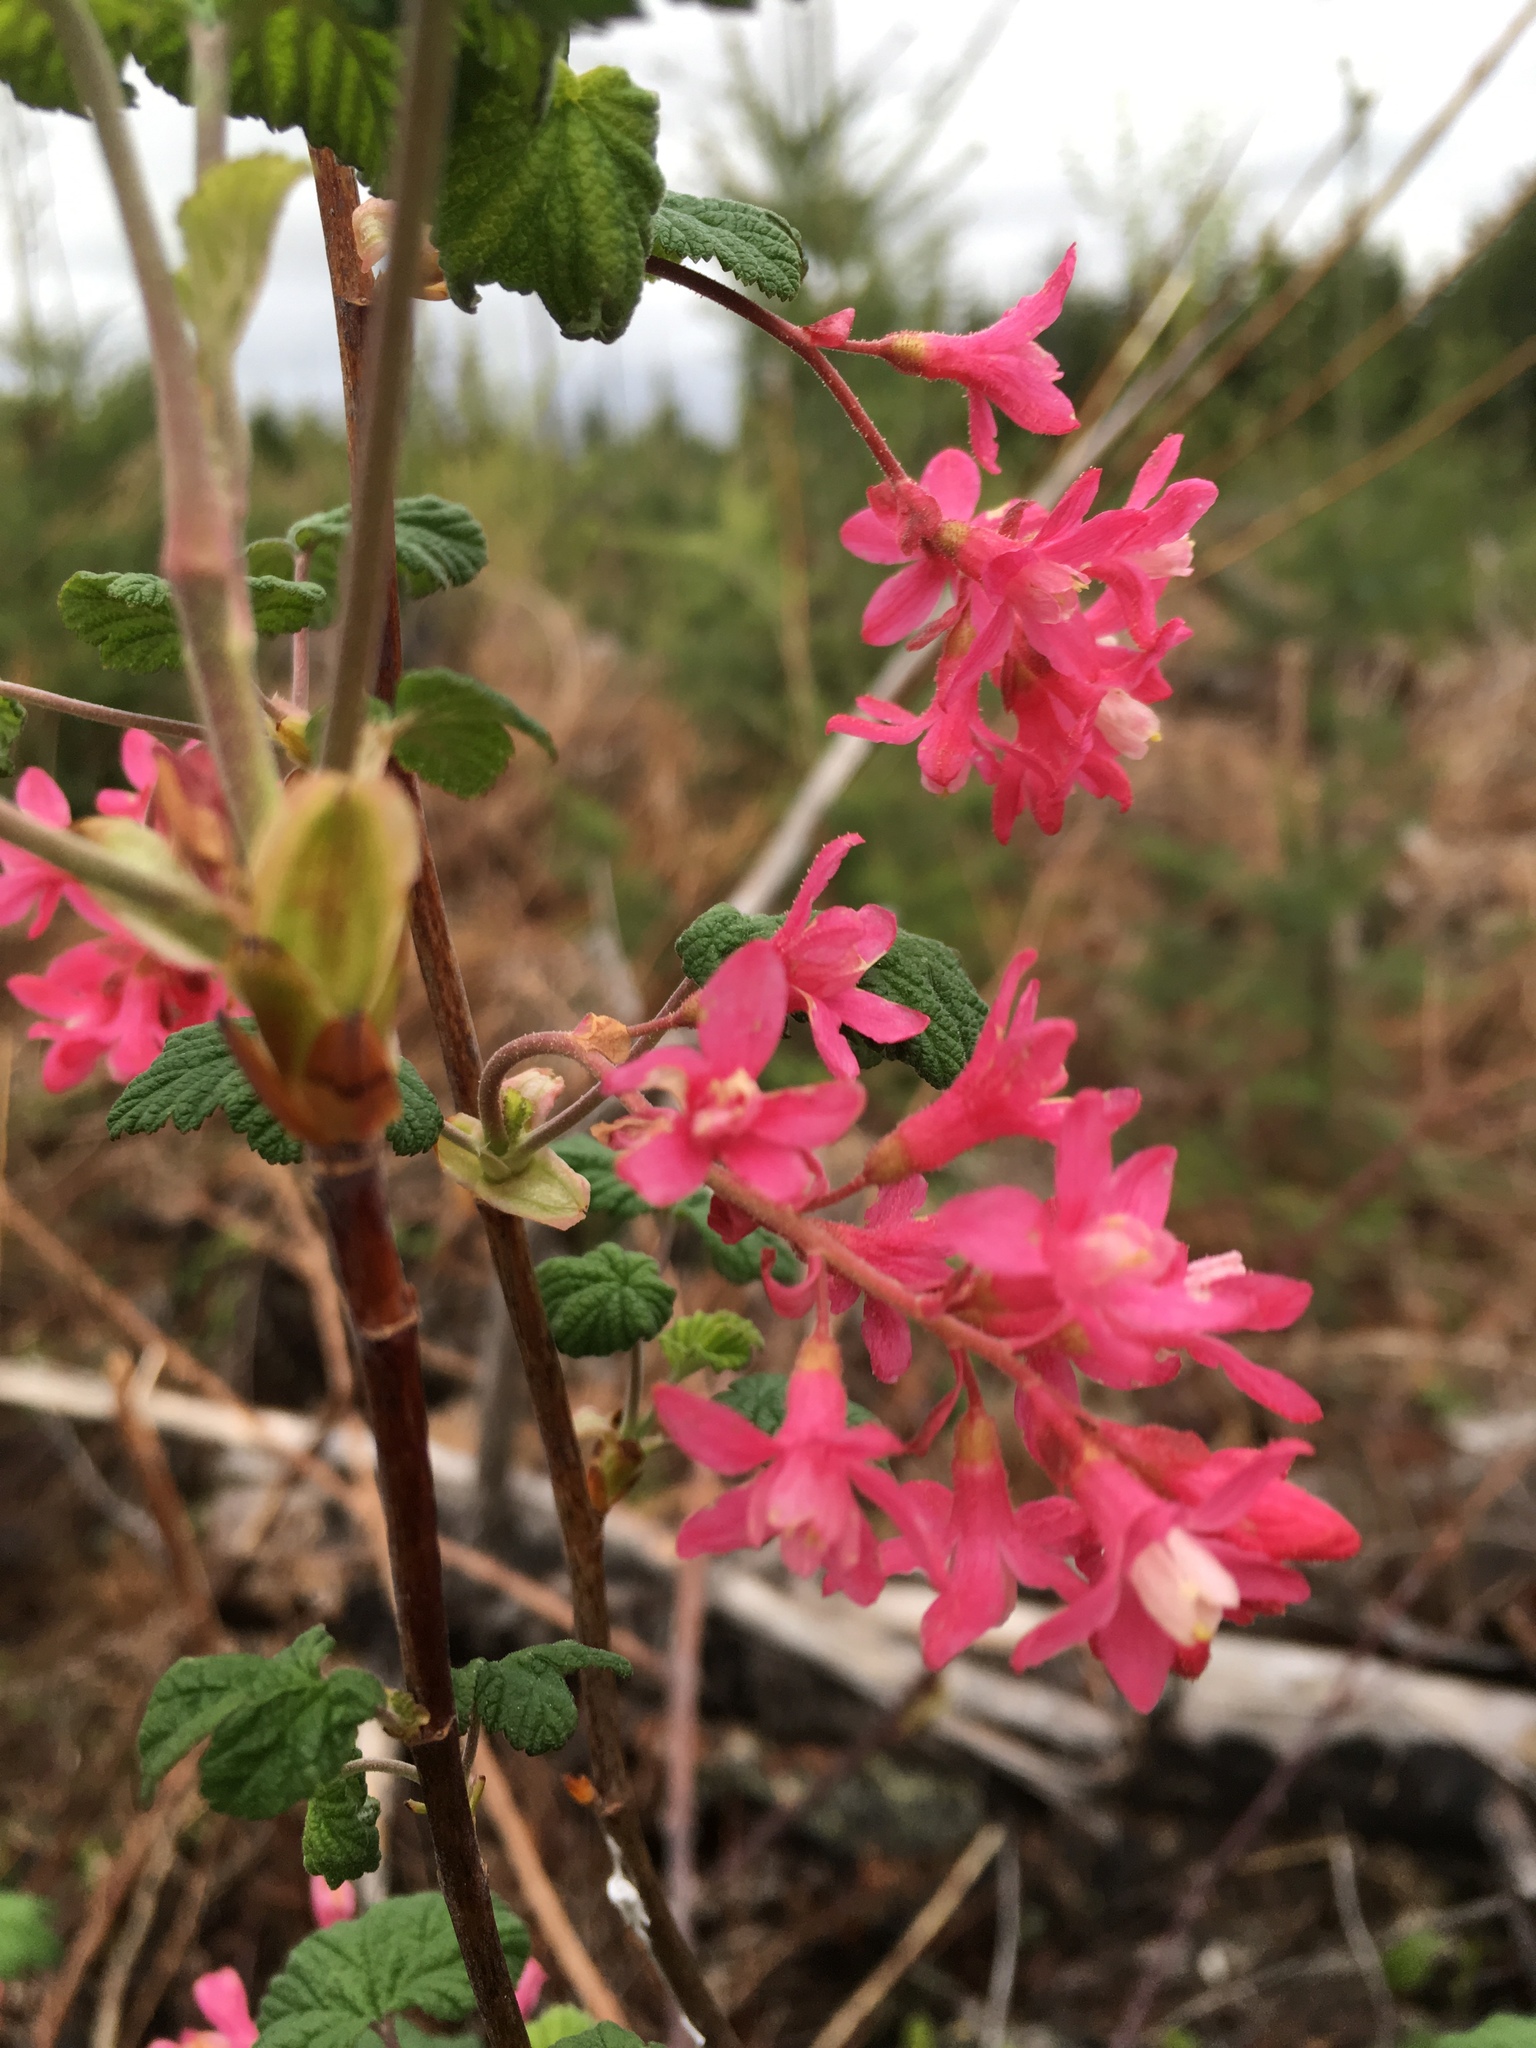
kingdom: Plantae
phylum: Tracheophyta
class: Magnoliopsida
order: Saxifragales
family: Grossulariaceae
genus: Ribes
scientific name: Ribes sanguineum
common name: Flowering currant
